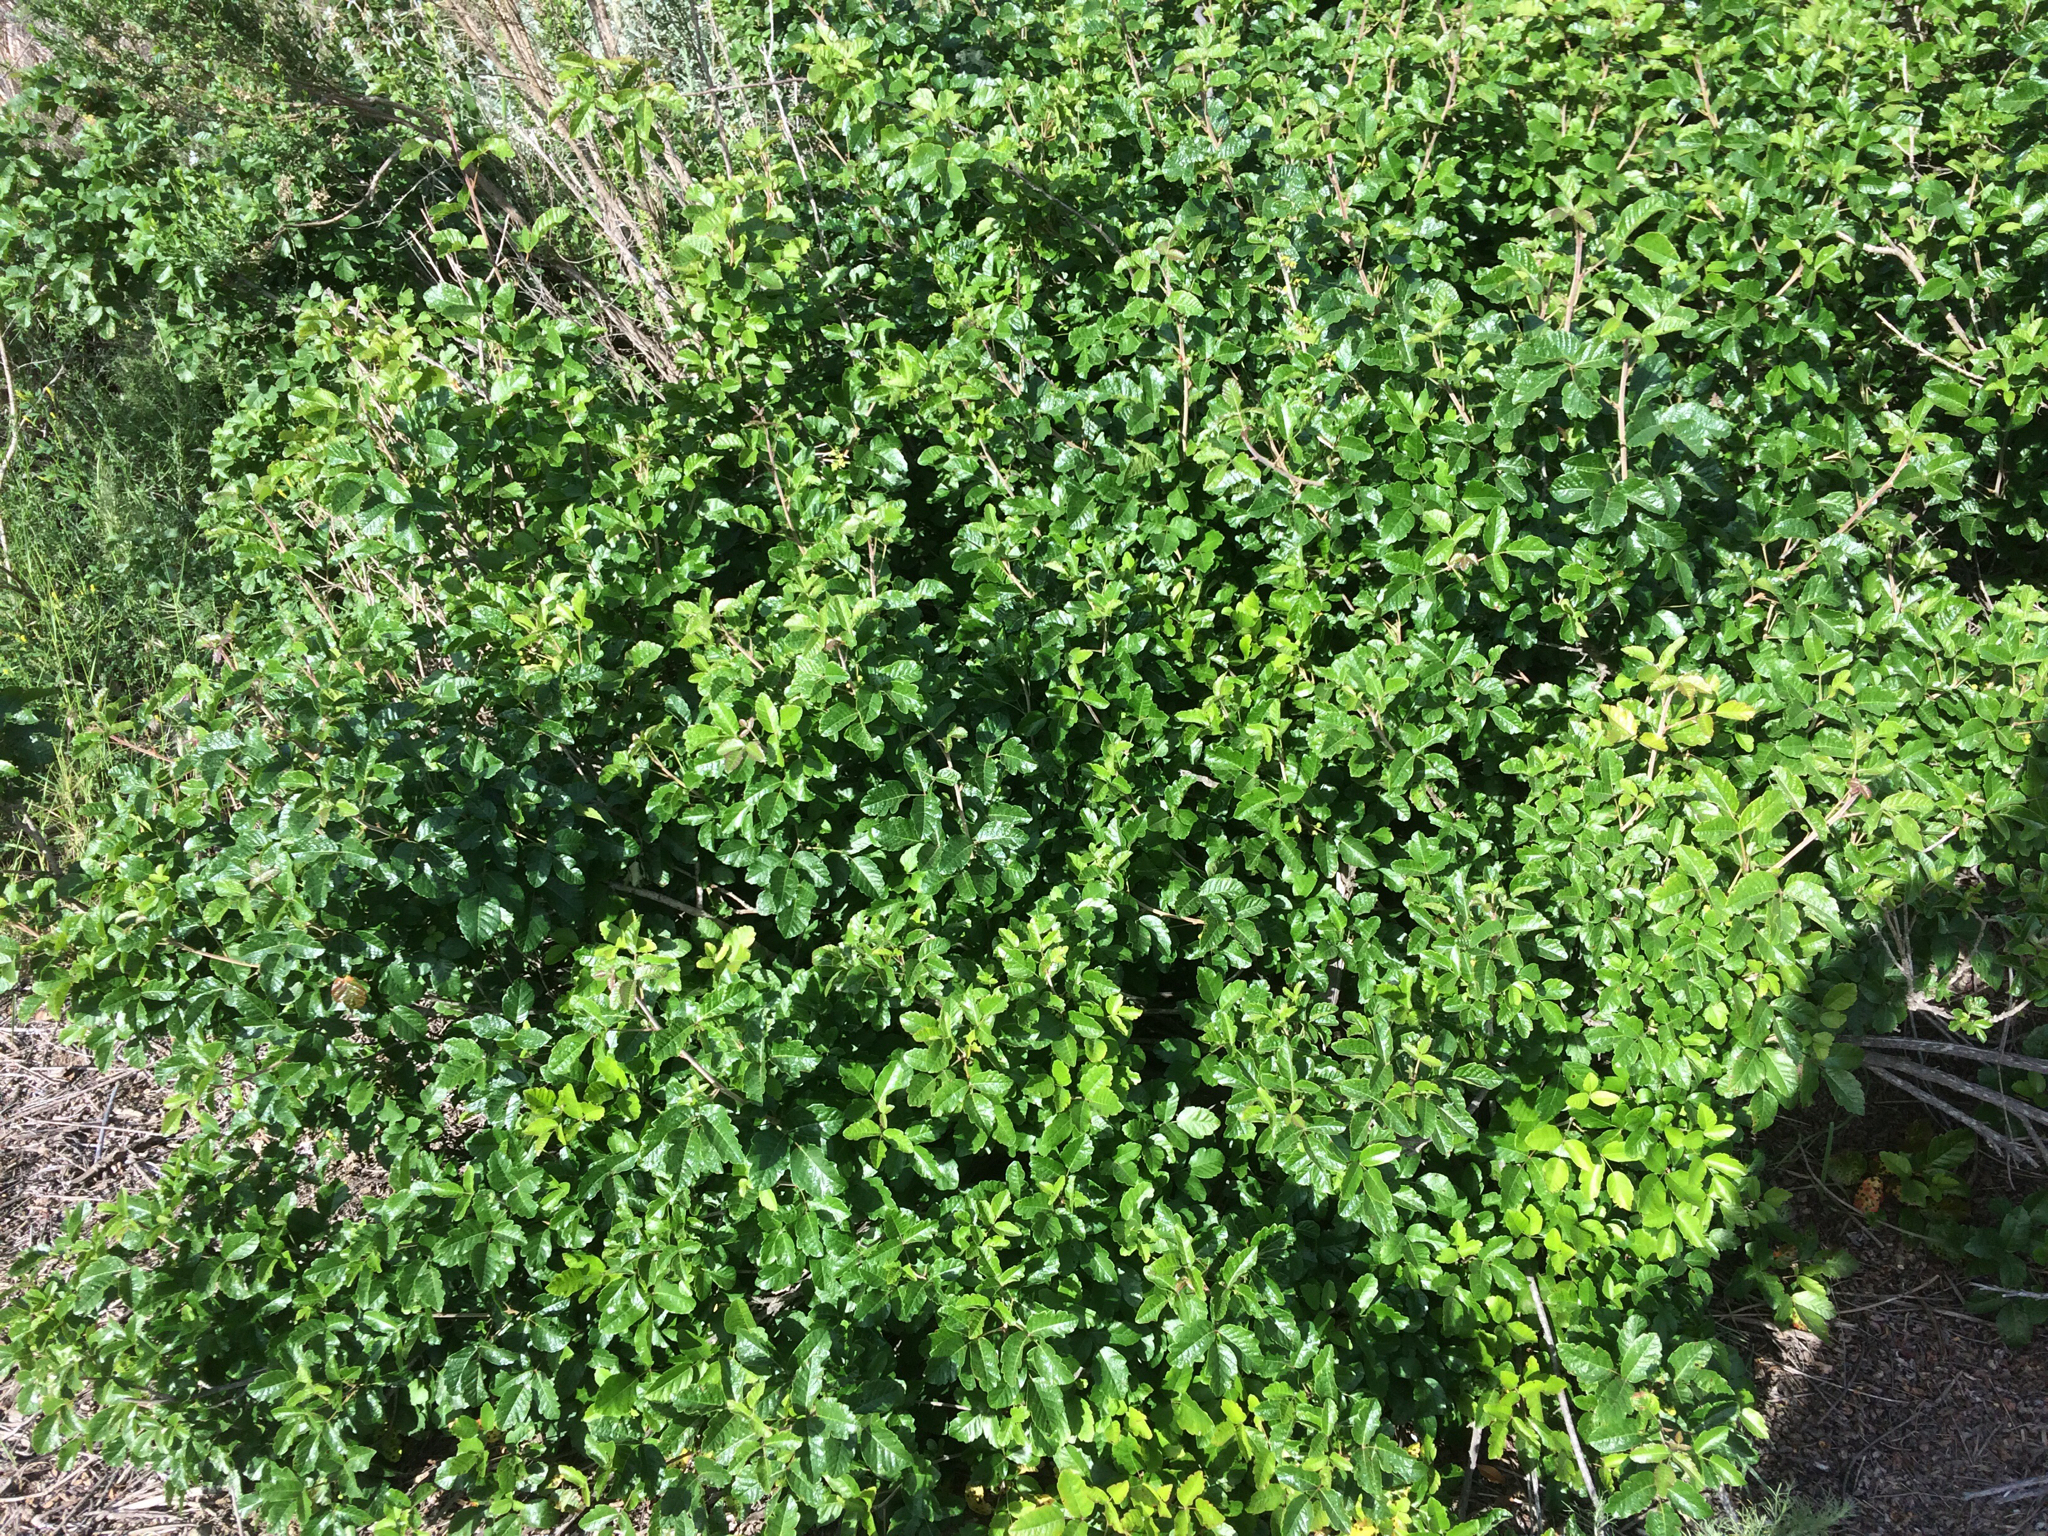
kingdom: Plantae
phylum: Tracheophyta
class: Magnoliopsida
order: Sapindales
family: Anacardiaceae
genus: Toxicodendron
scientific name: Toxicodendron diversilobum
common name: Pacific poison-oak
